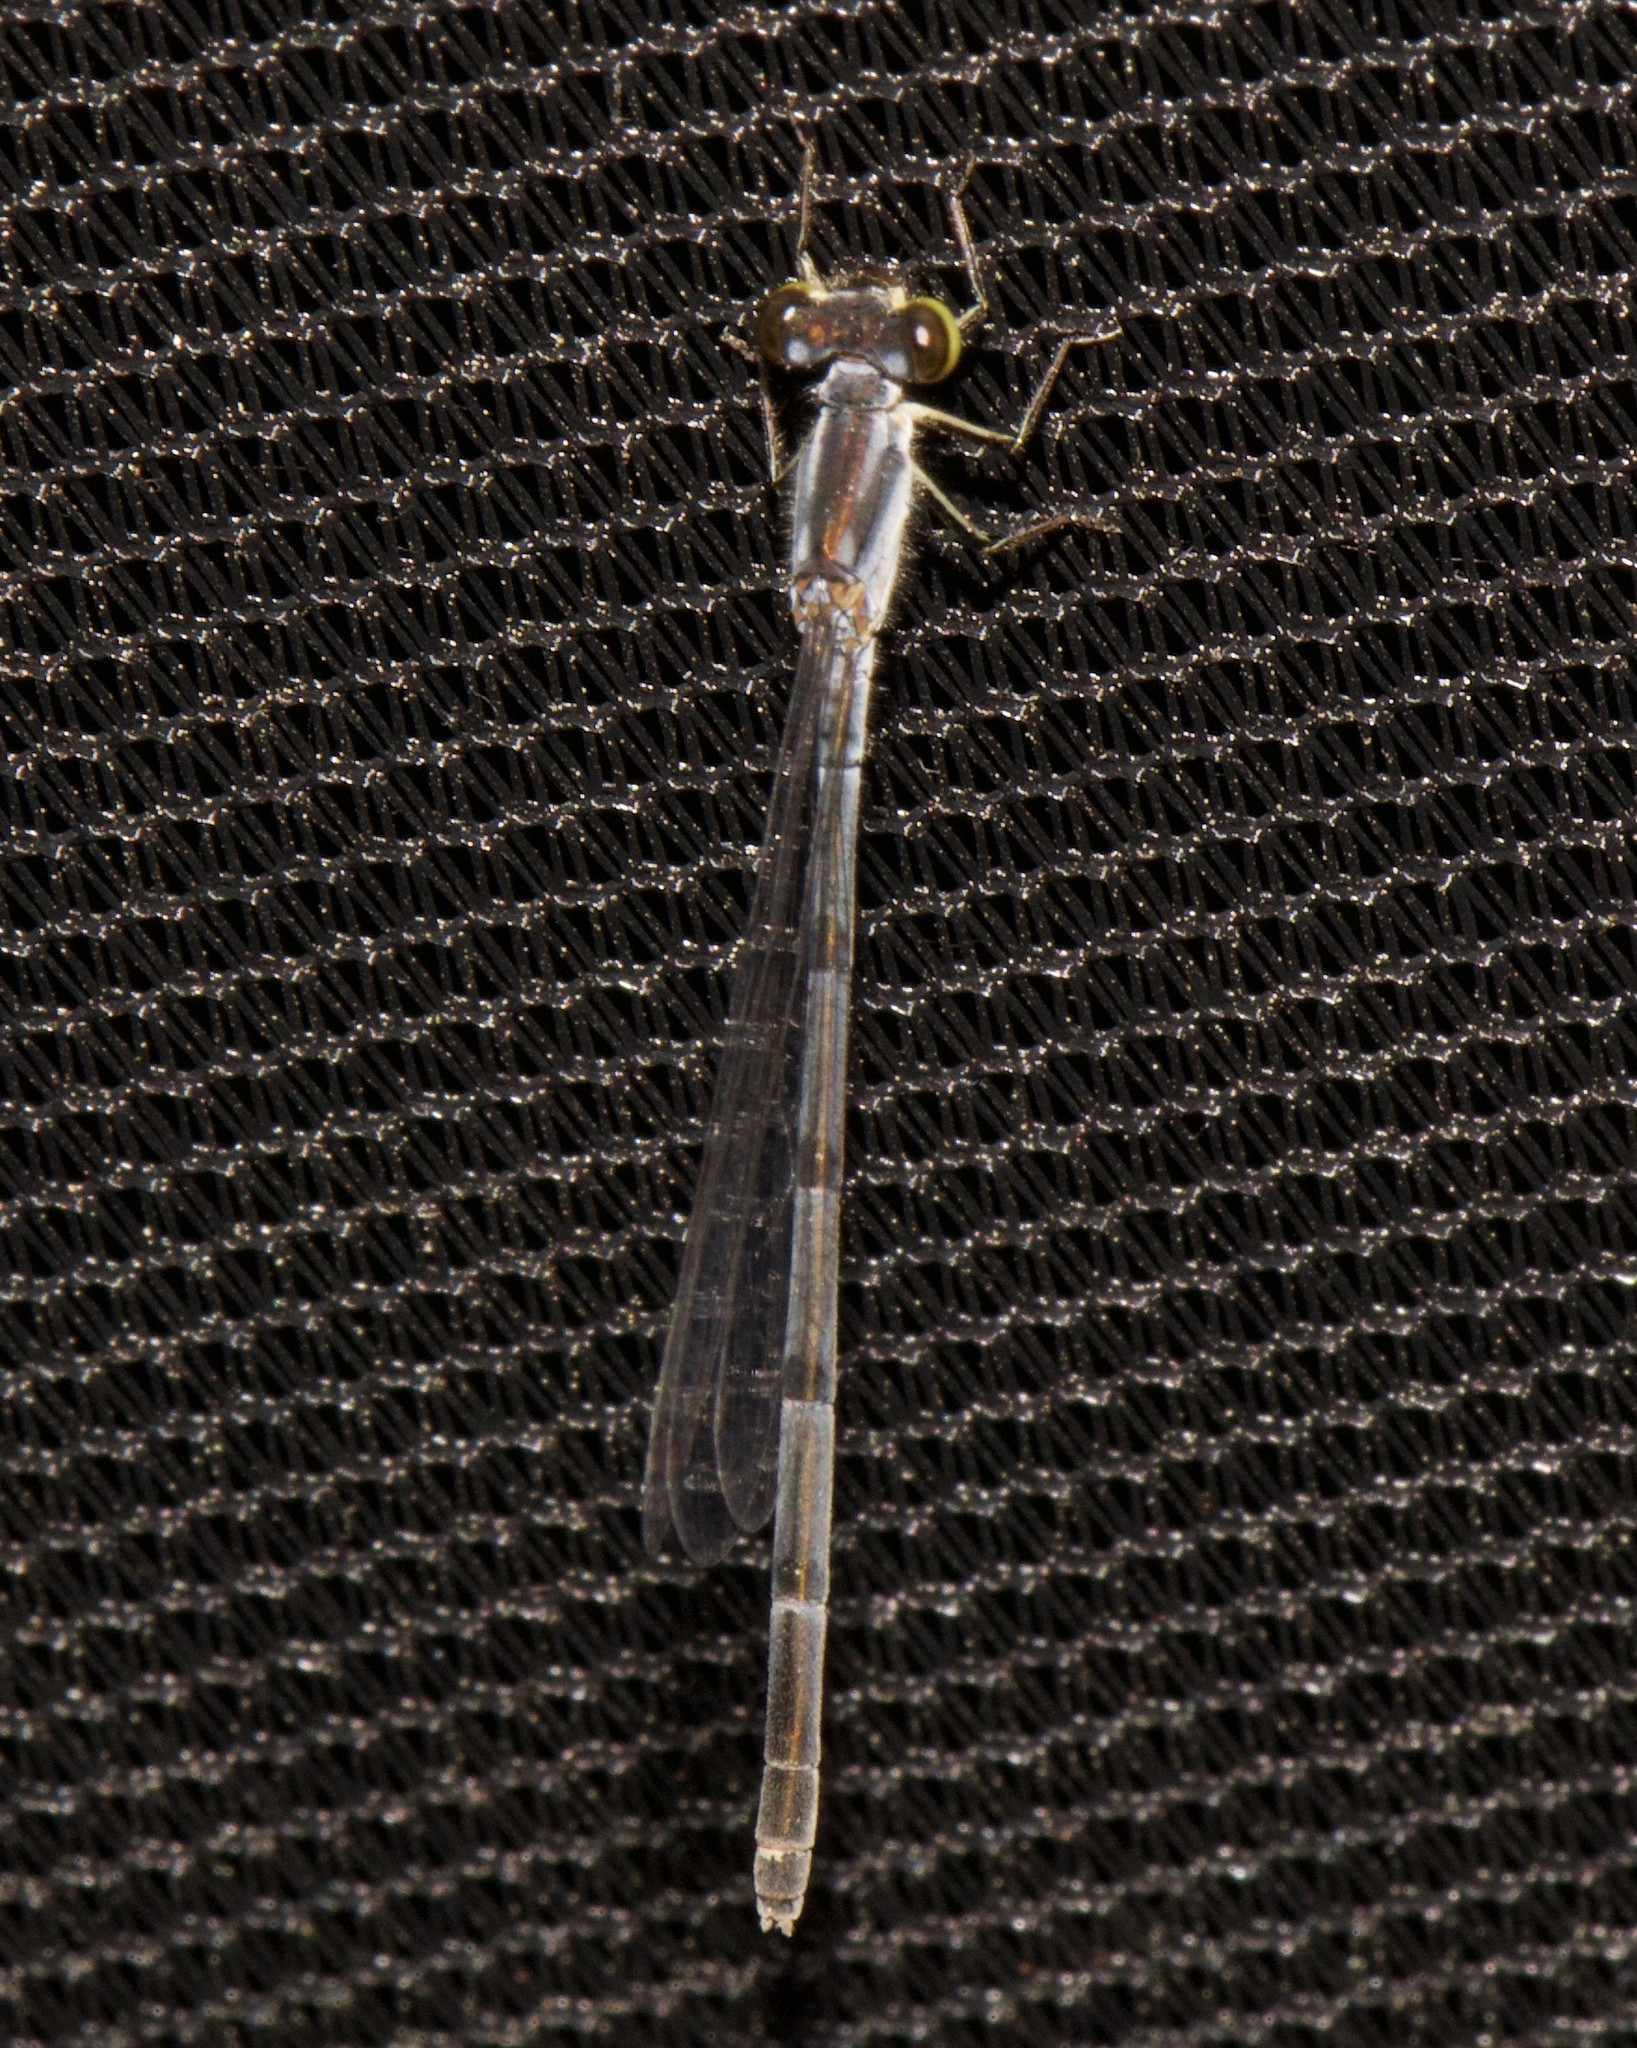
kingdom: Animalia
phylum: Arthropoda
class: Insecta
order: Odonata
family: Coenagrionidae
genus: Ischnura
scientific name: Ischnura posita
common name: Fragile forktail
